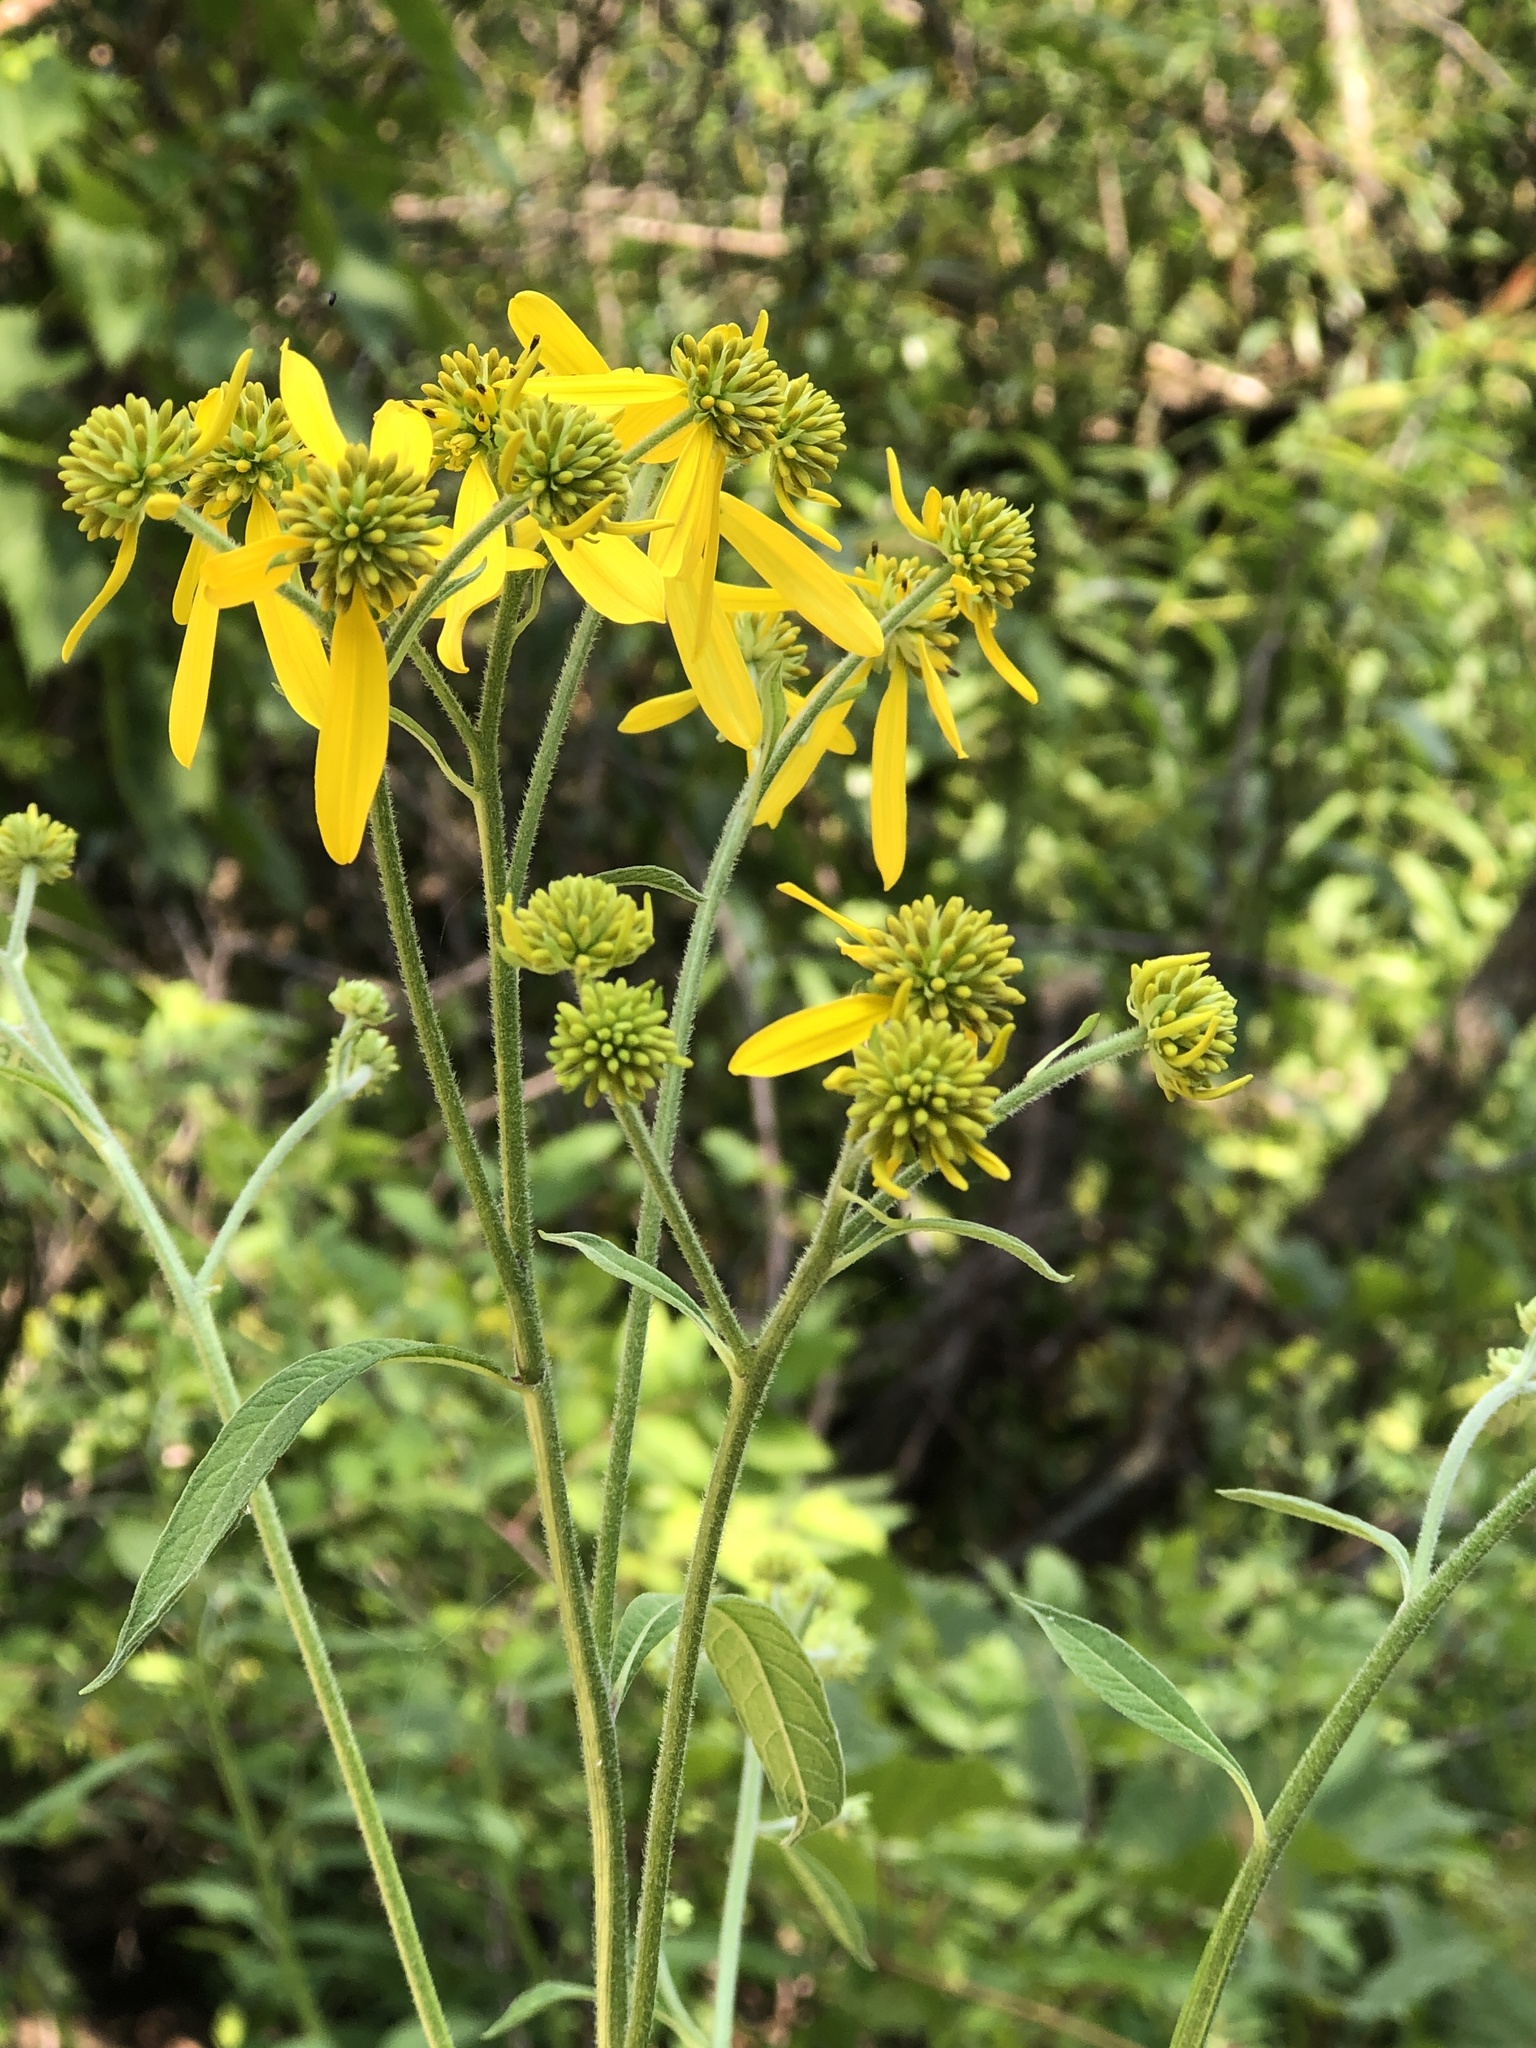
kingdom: Plantae
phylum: Tracheophyta
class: Magnoliopsida
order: Asterales
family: Asteraceae
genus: Verbesina
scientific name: Verbesina alternifolia
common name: Wingstem
